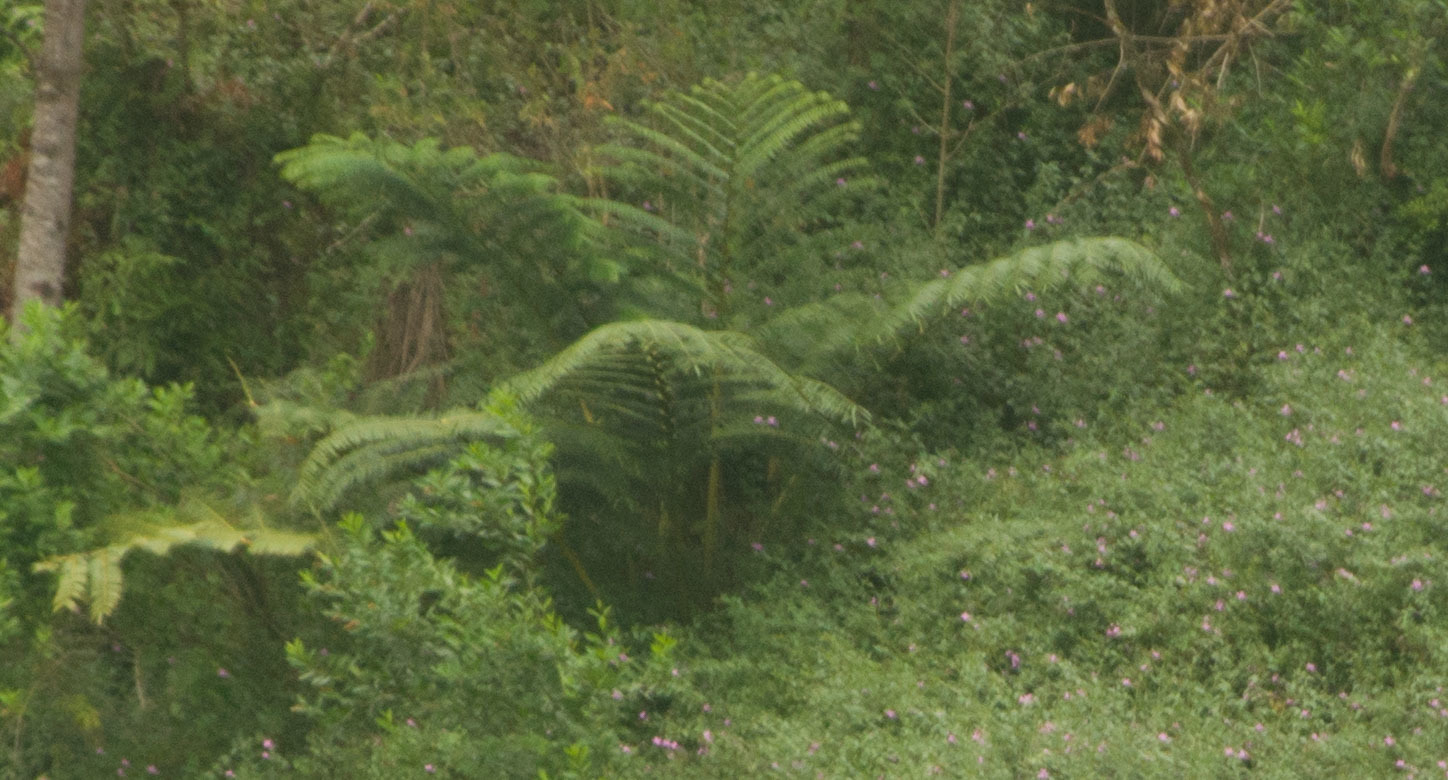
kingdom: Plantae
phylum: Tracheophyta
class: Polypodiopsida
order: Marattiales
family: Marattiaceae
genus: Angiopteris
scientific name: Angiopteris evecta
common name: Mule's-foot fern
